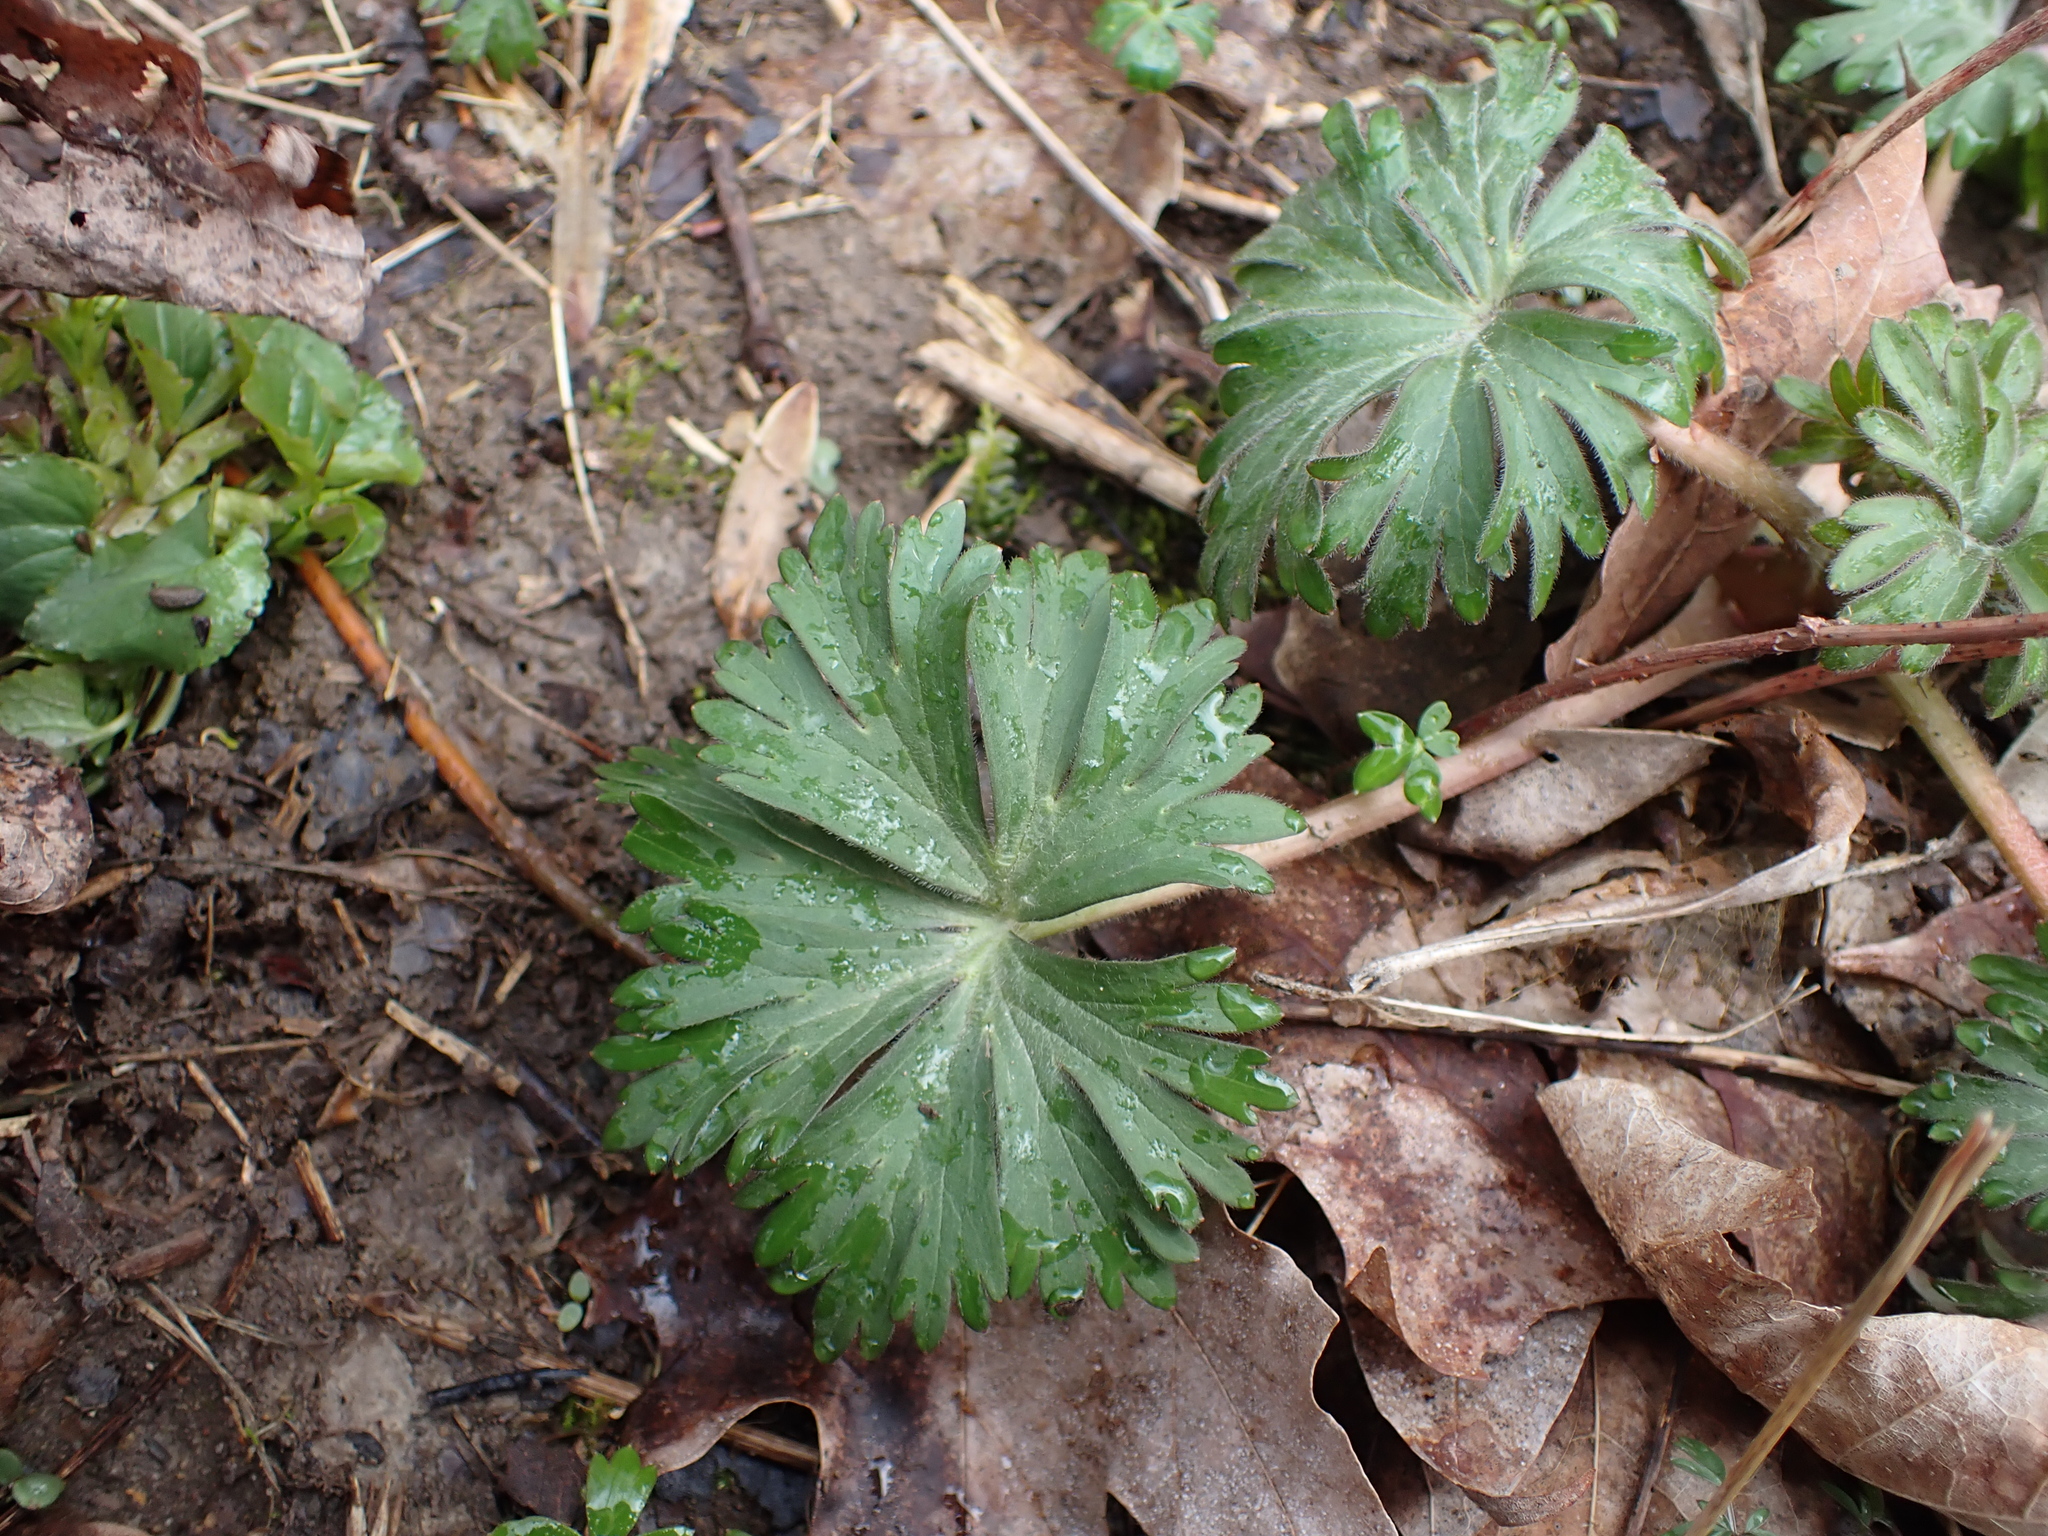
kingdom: Plantae
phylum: Tracheophyta
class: Magnoliopsida
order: Ranunculales
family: Ranunculaceae
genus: Delphinium
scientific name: Delphinium tricorne
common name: Dwarf larkspur
